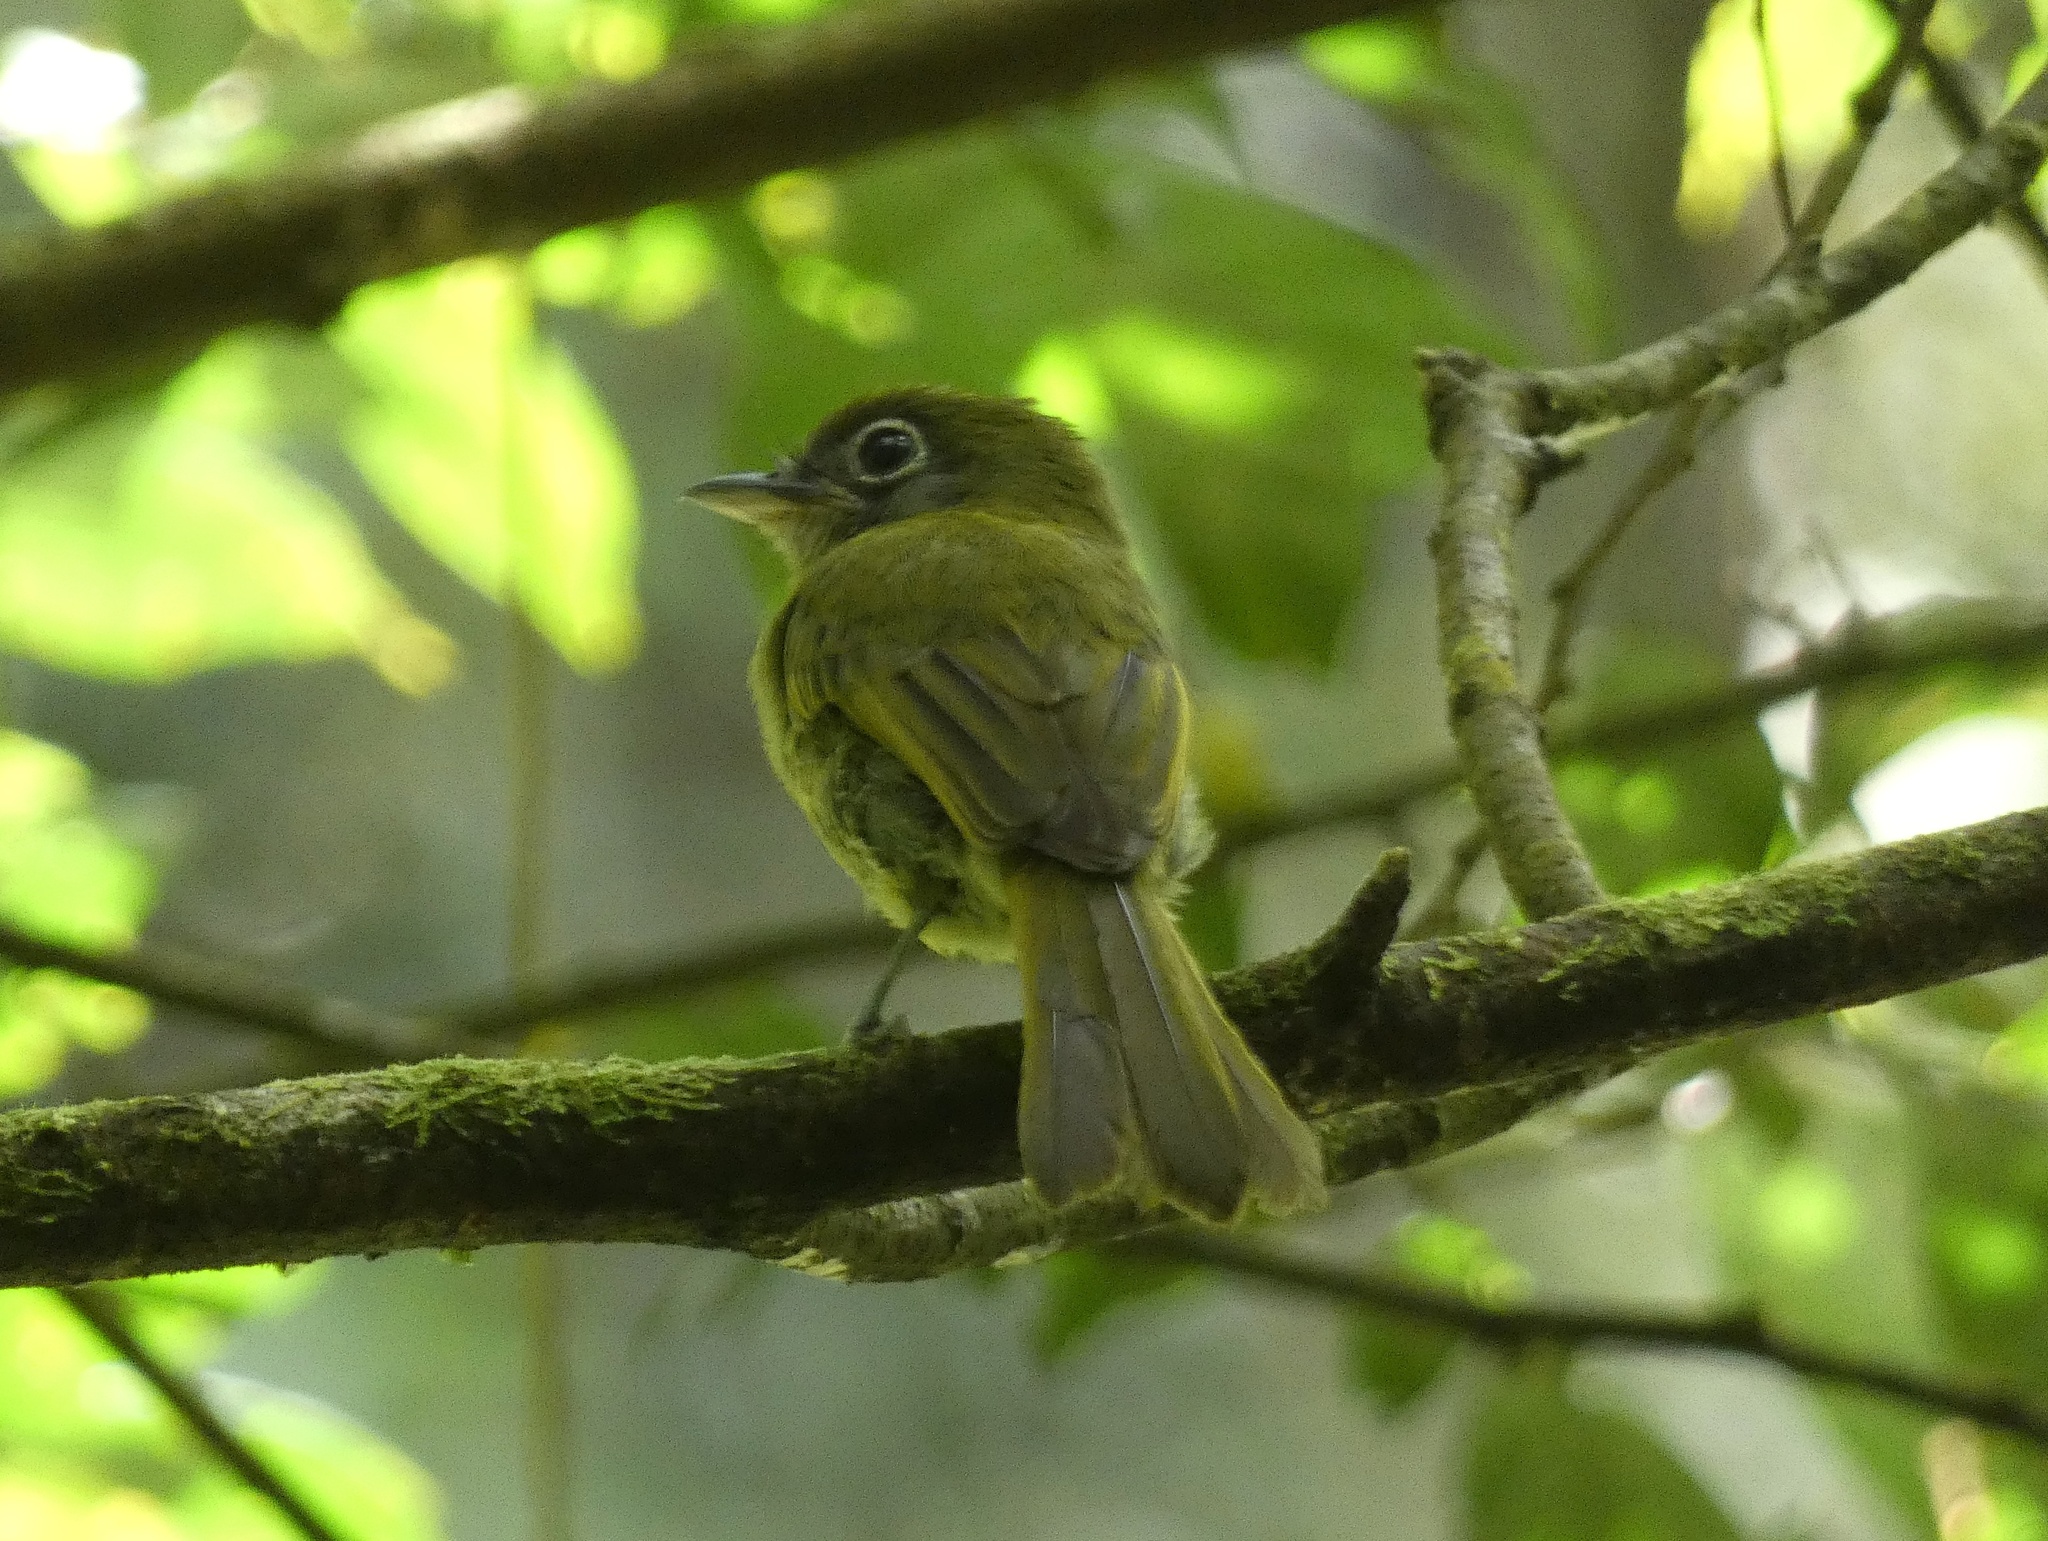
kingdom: Animalia
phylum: Chordata
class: Aves
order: Passeriformes
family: Tyrannidae
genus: Rhynchocyclus
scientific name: Rhynchocyclus olivaceus
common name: Olivaceous flatbill
